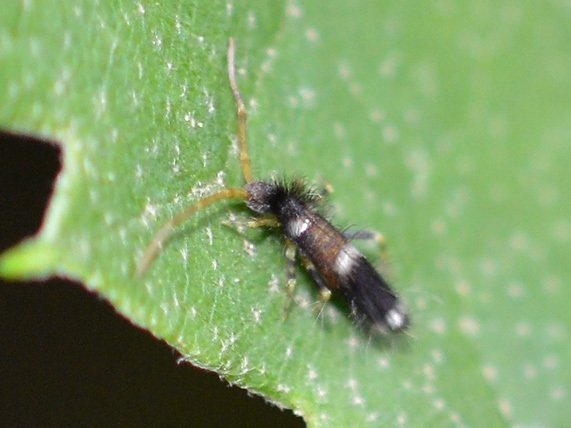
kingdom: Animalia
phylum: Arthropoda
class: Collembola
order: Entomobryomorpha
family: Entomobryidae
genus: Entomobrya
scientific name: Entomobrya dorsalis
